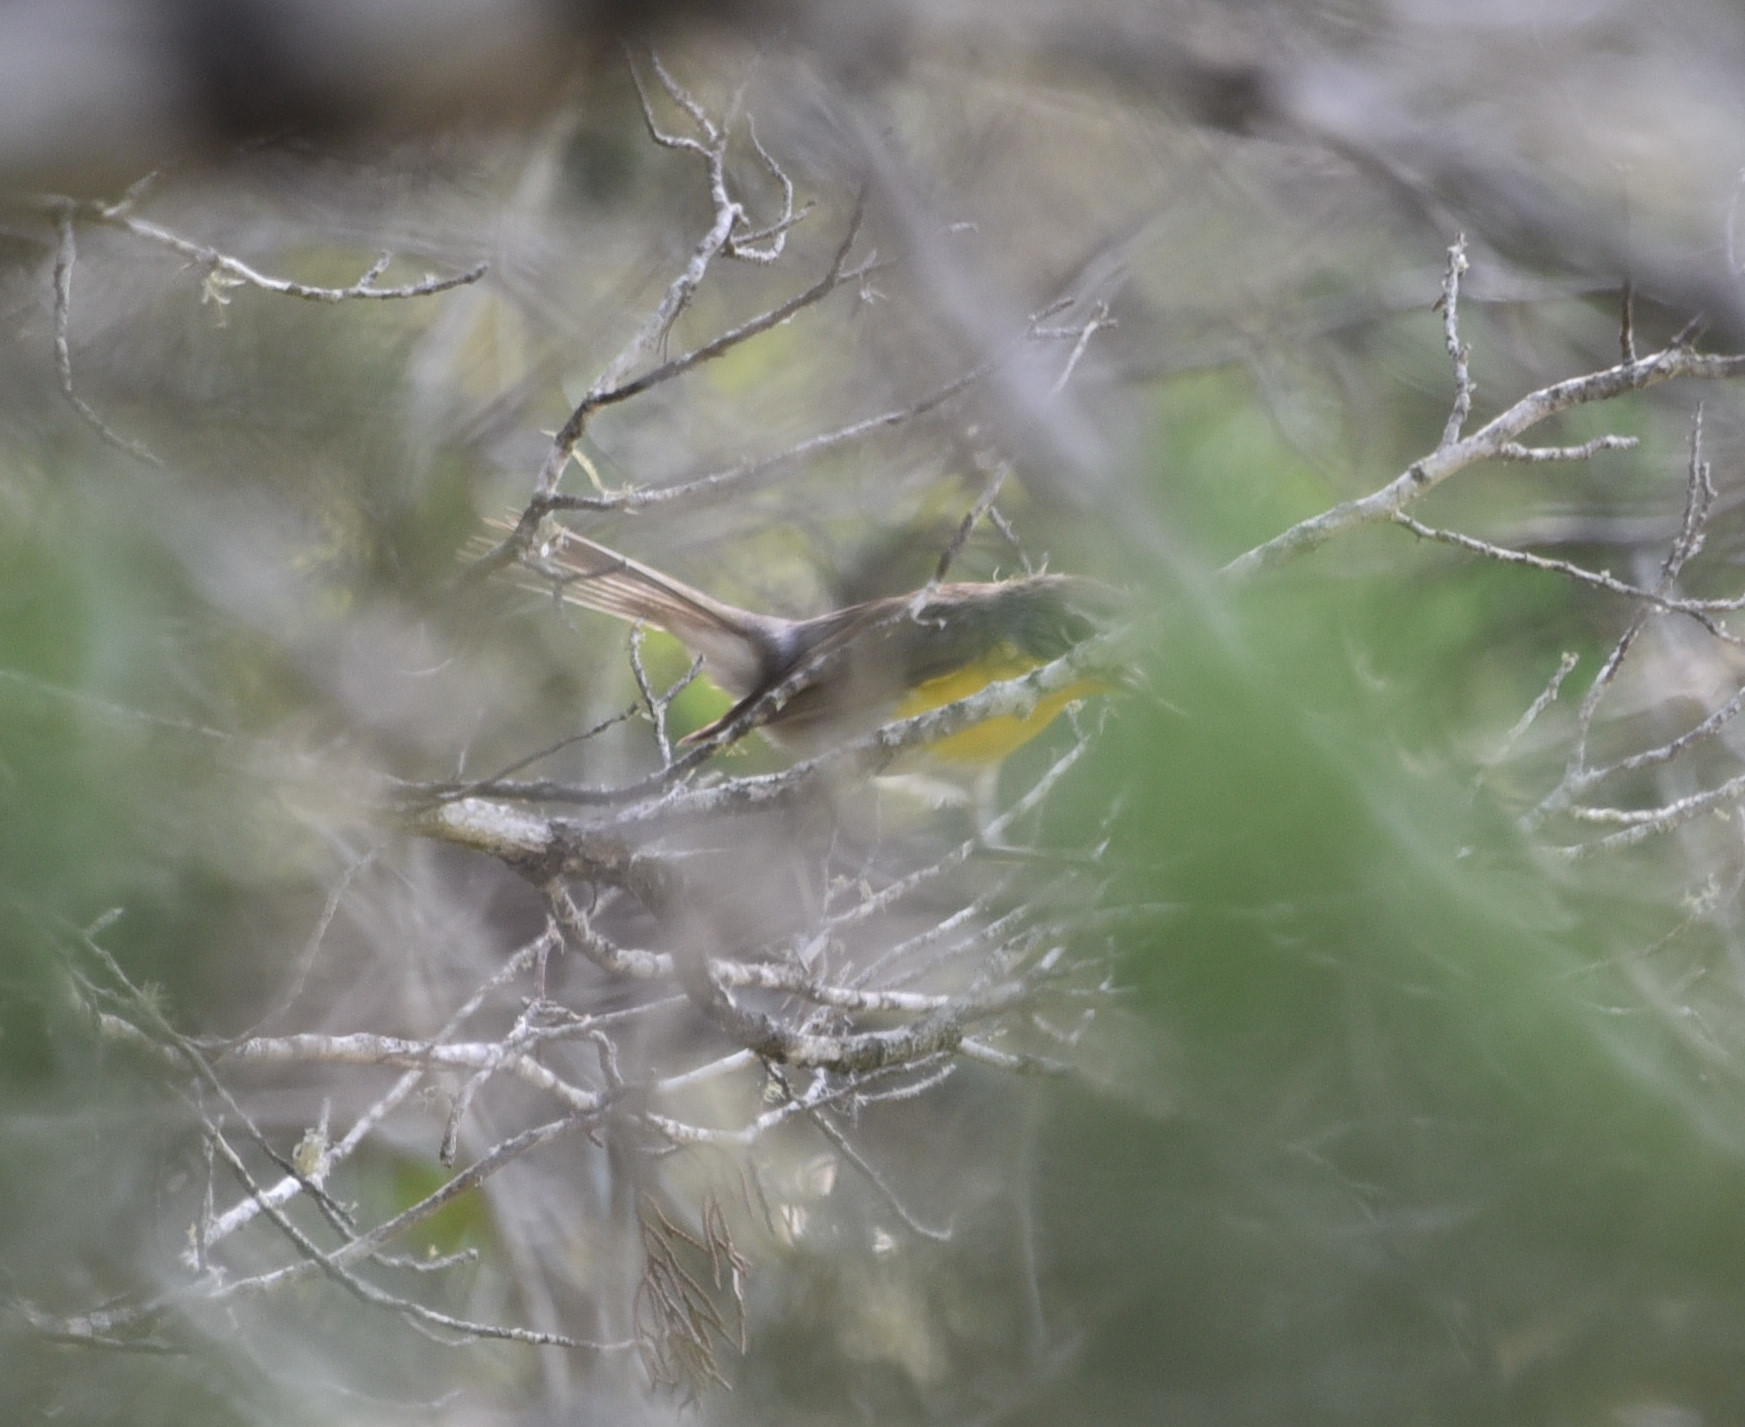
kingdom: Animalia
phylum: Chordata
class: Aves
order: Passeriformes
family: Parulidae
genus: Icteria
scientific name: Icteria virens
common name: Yellow-breasted chat
